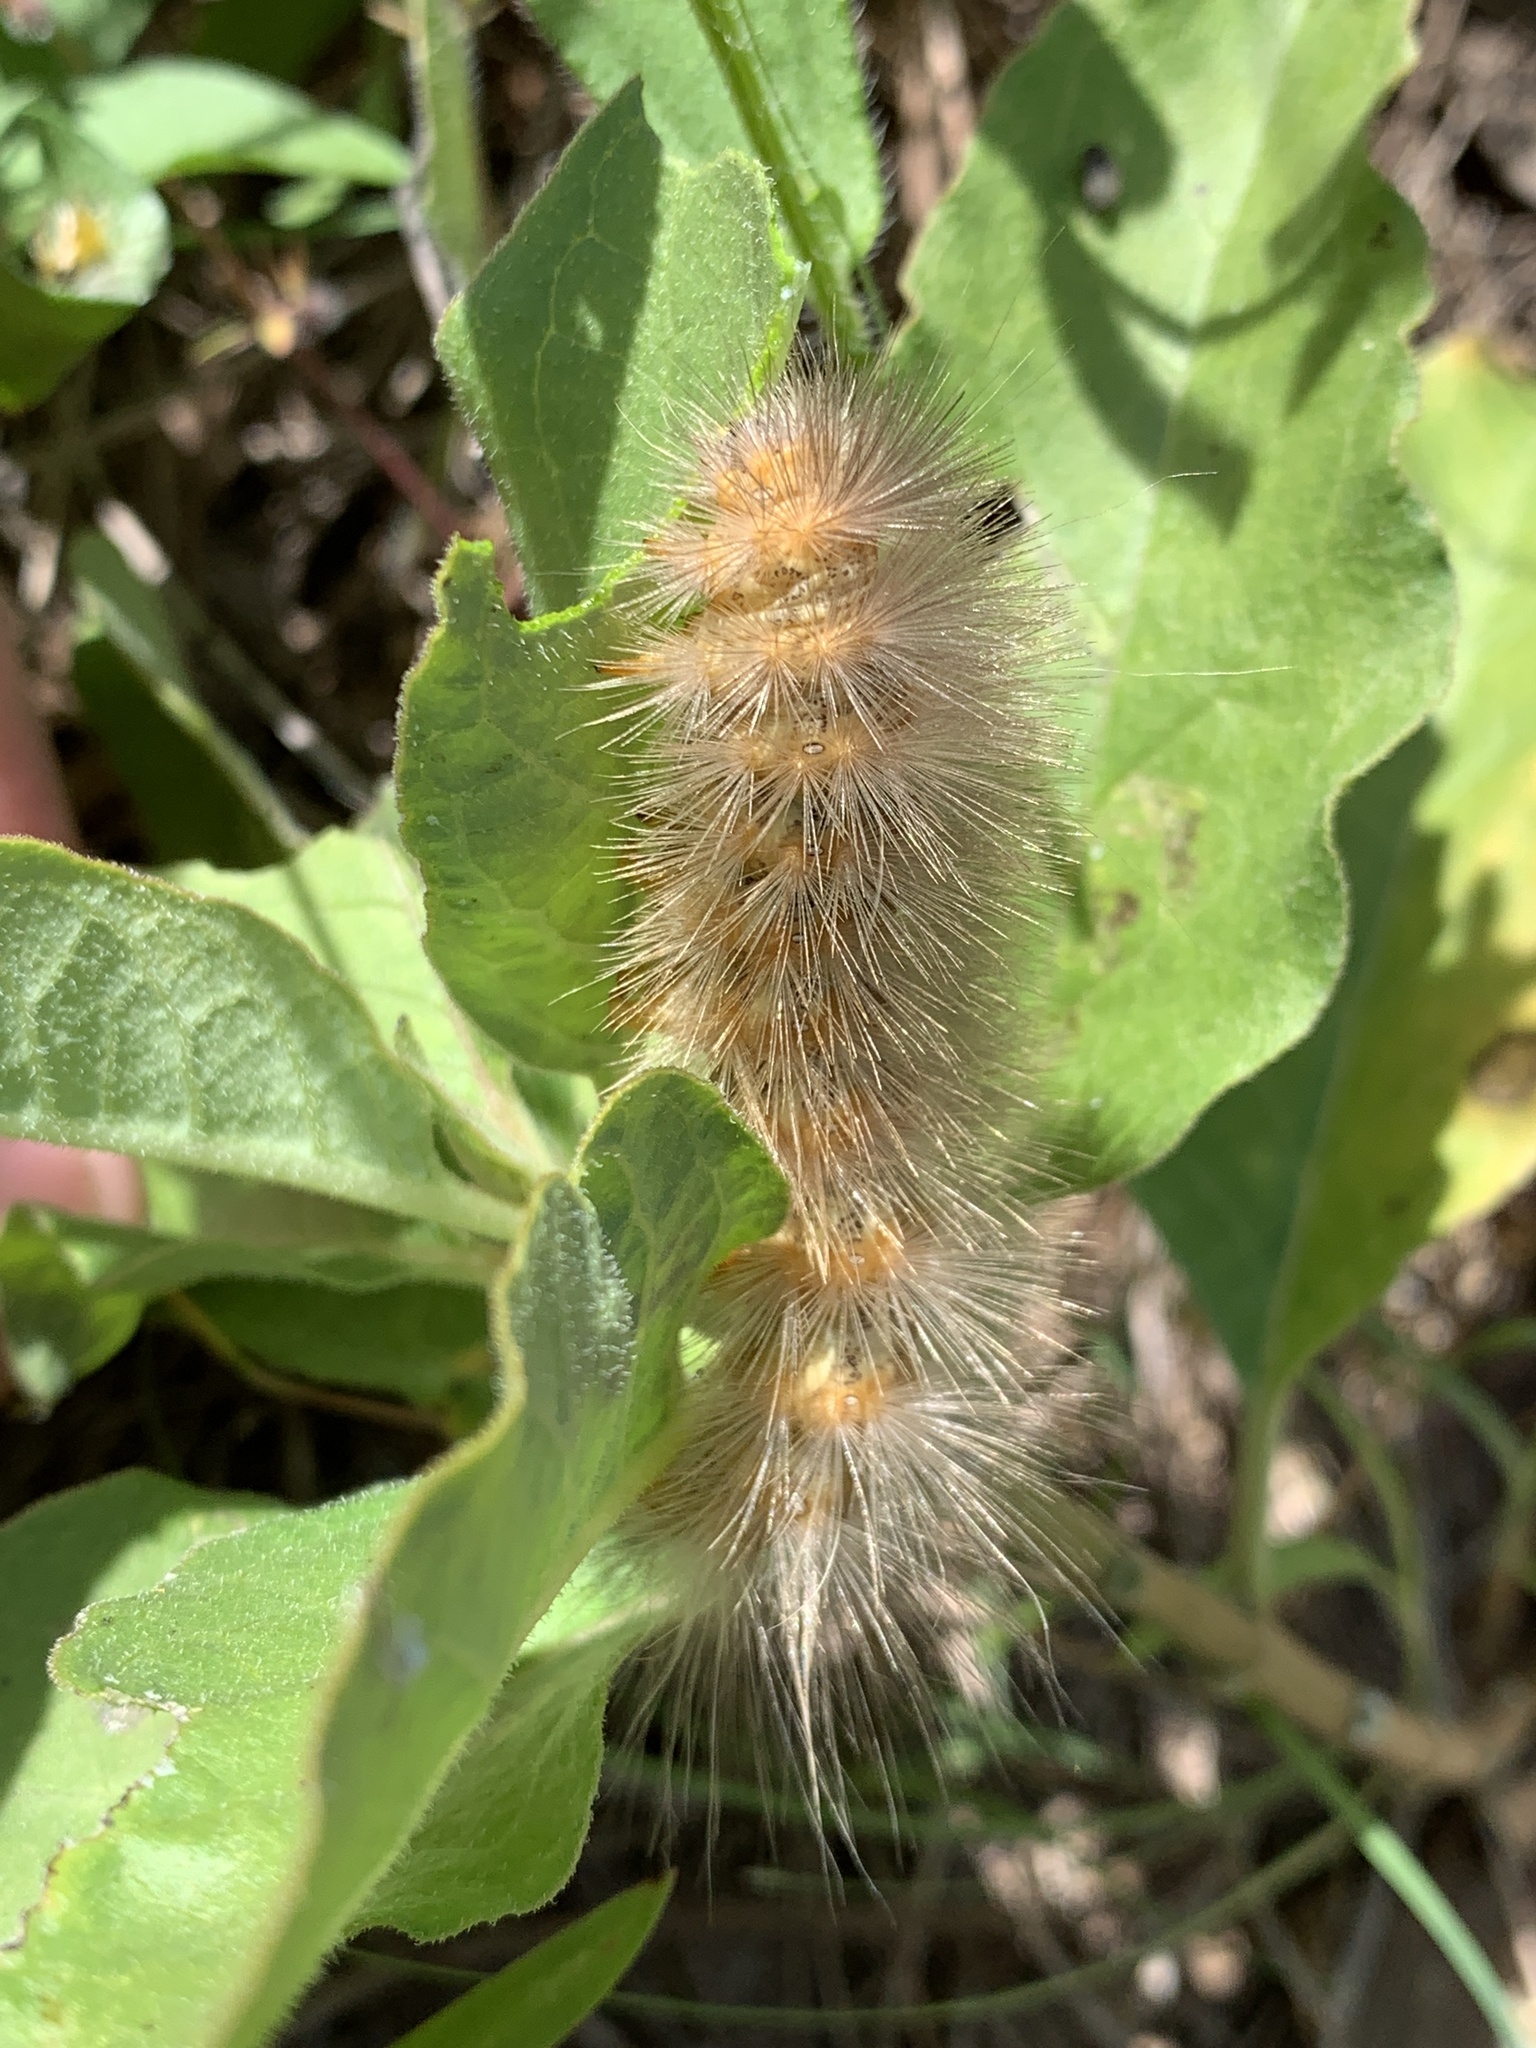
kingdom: Plantae
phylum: Tracheophyta
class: Magnoliopsida
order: Gentianales
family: Apocynaceae
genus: Asclepias
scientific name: Asclepias oenotheroides
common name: Zizotes milkweed
